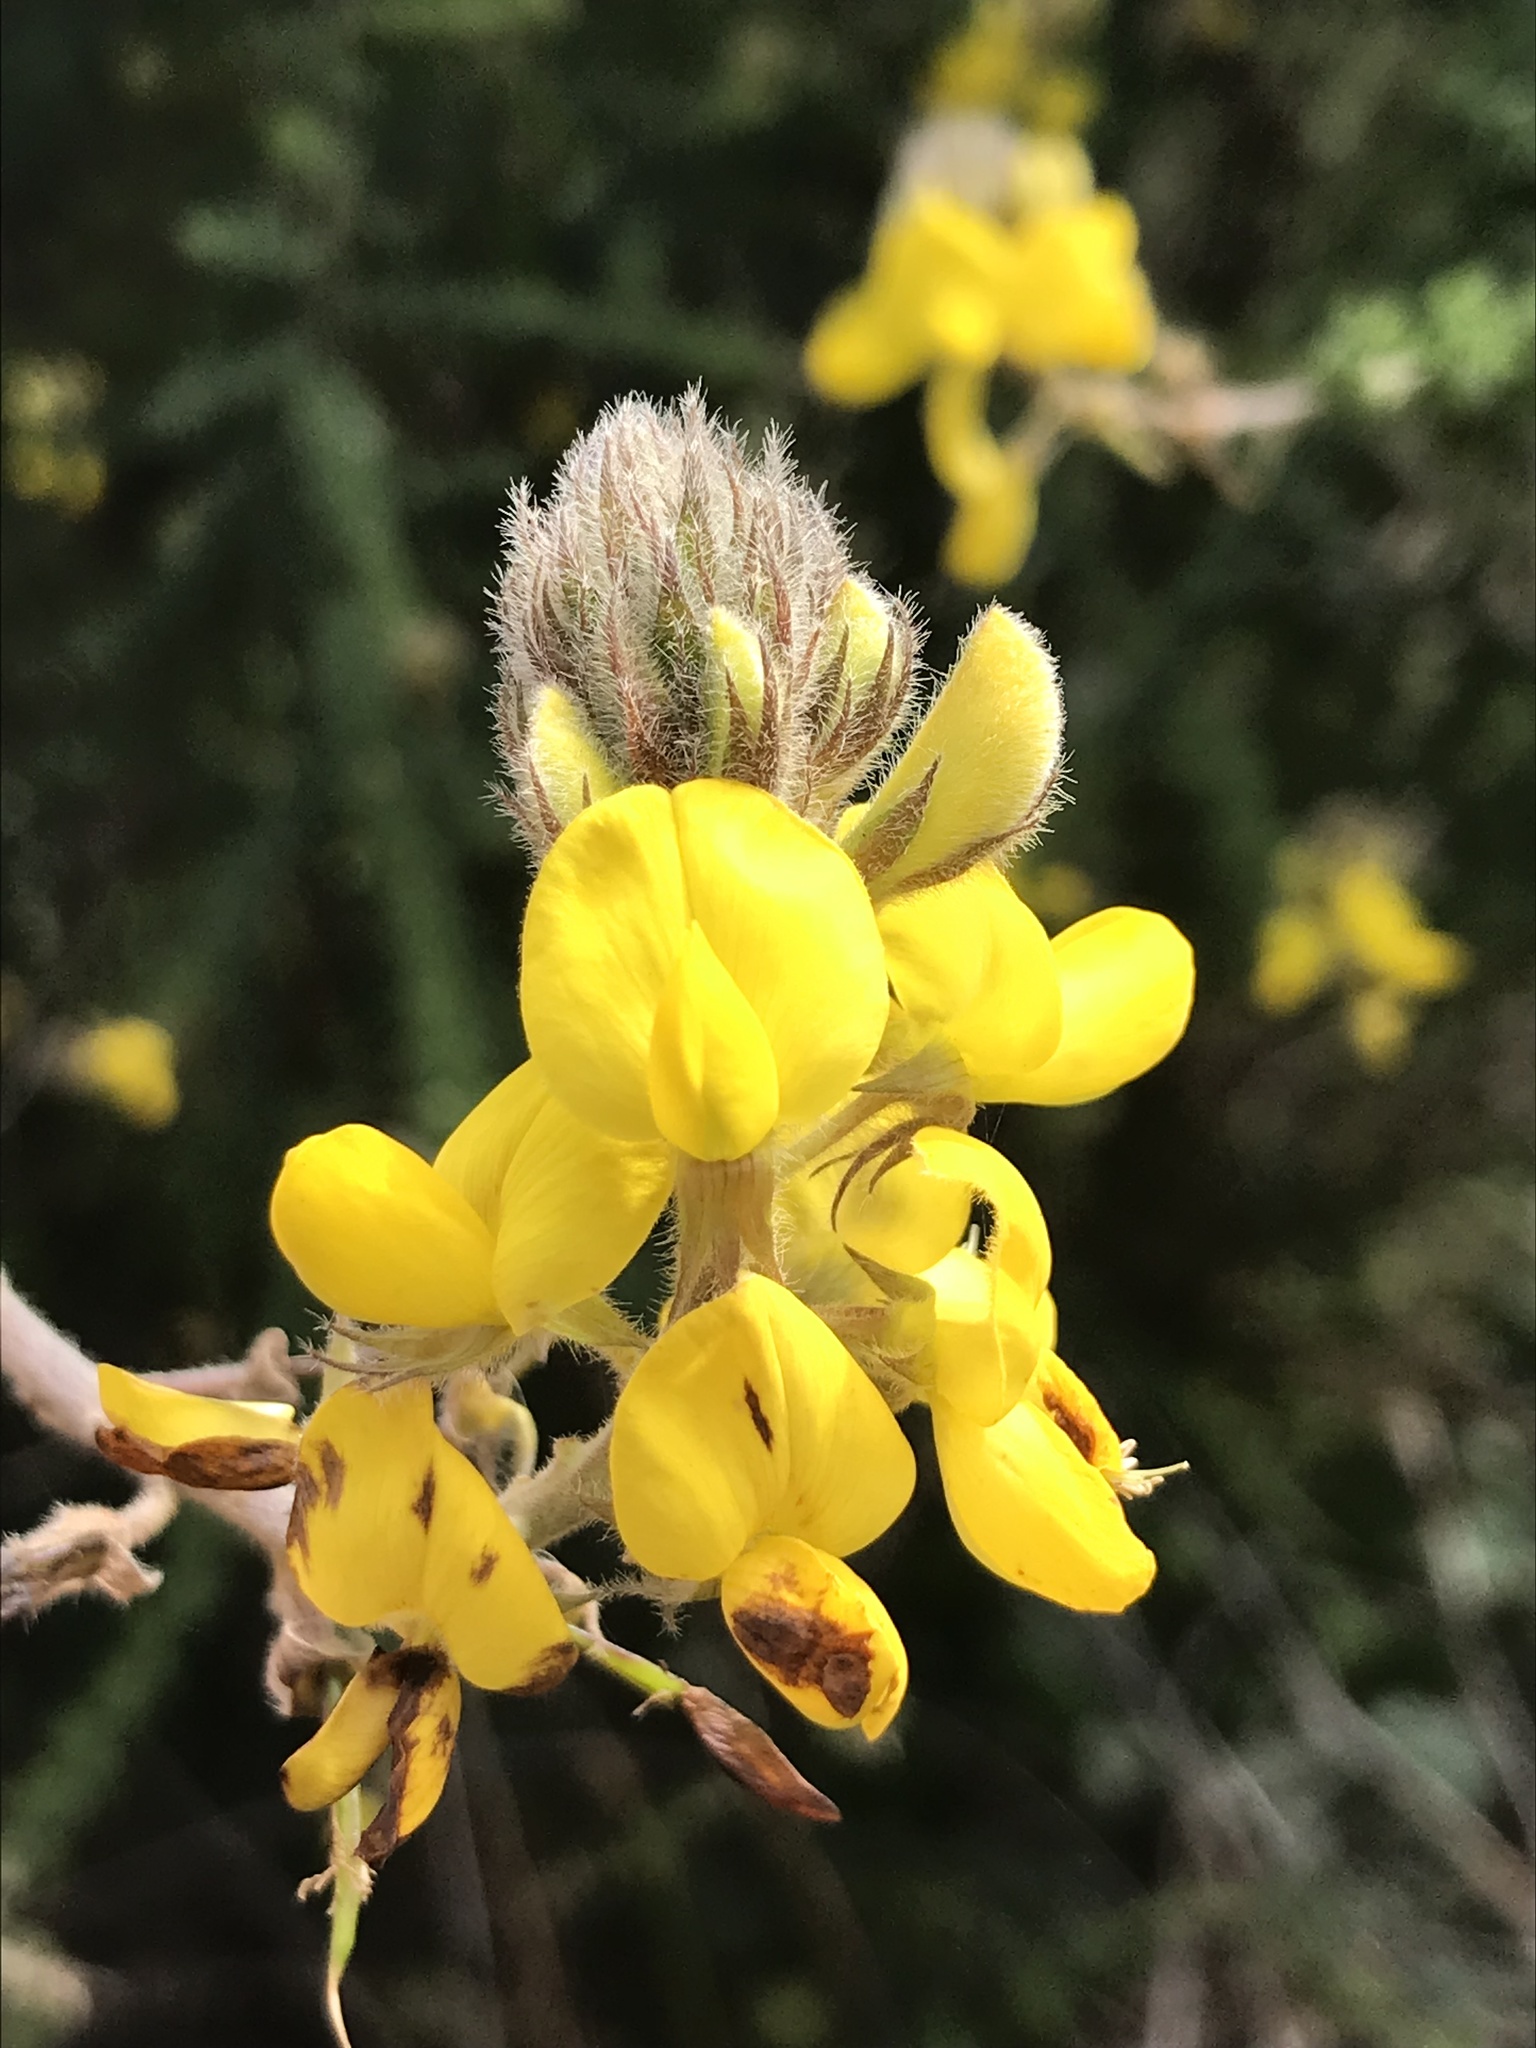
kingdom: Plantae
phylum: Tracheophyta
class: Magnoliopsida
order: Fabales
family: Fabaceae
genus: Adenocarpus
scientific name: Adenocarpus foliolosus
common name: Canary island flatpod
